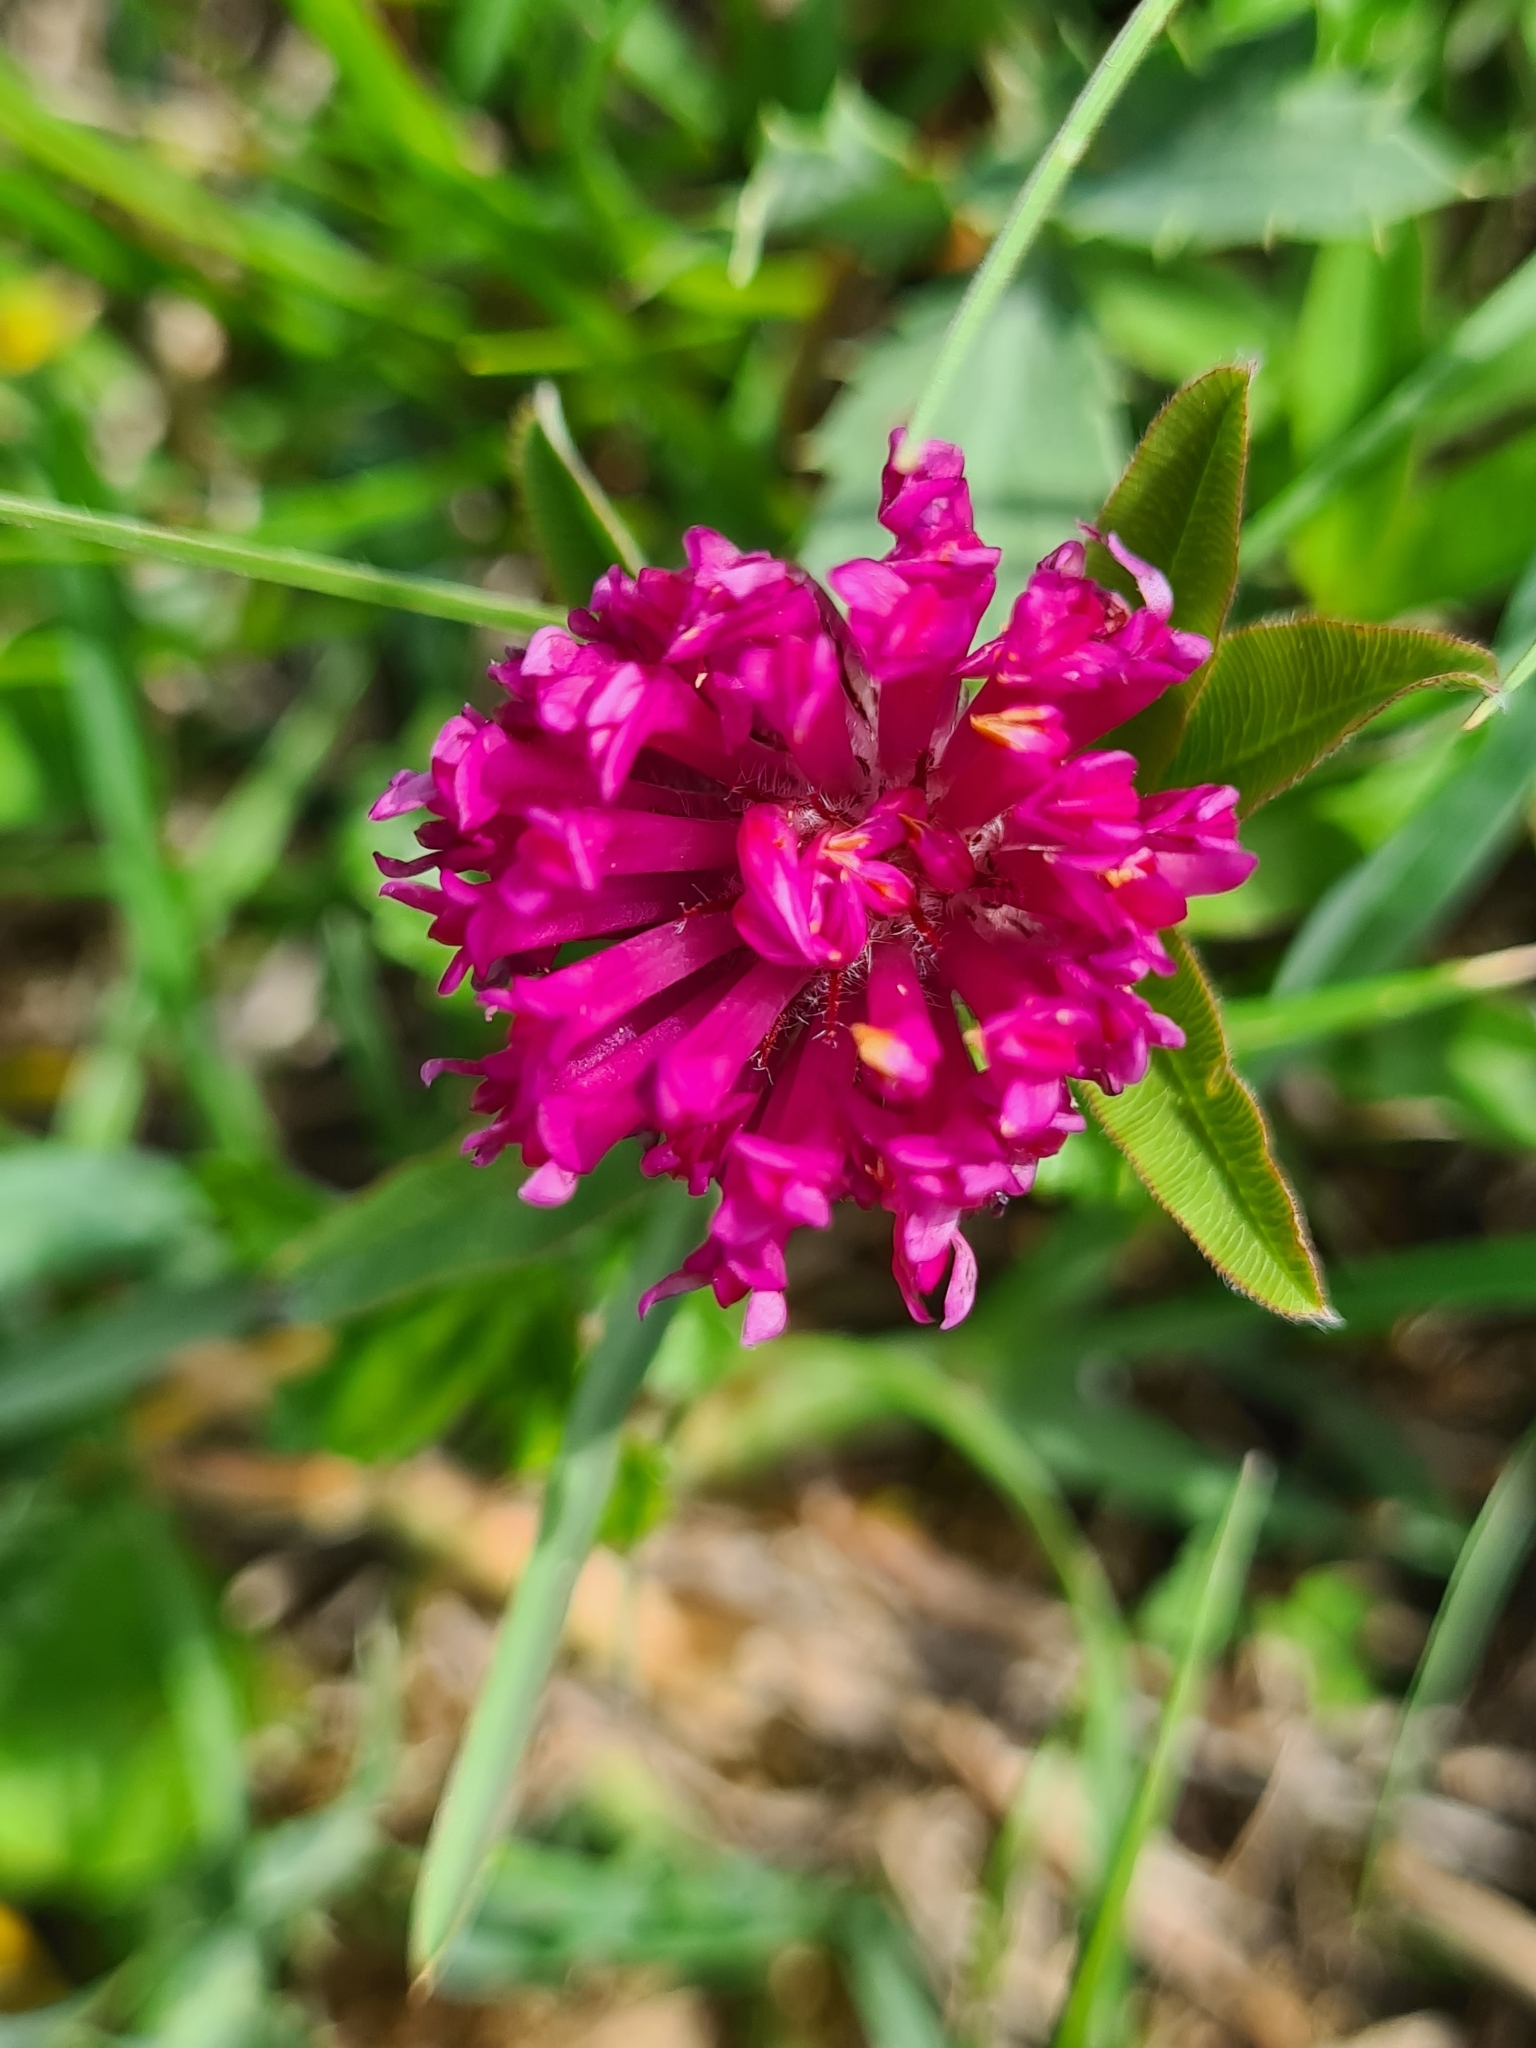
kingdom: Plantae
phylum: Tracheophyta
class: Magnoliopsida
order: Fabales
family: Fabaceae
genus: Trifolium
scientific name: Trifolium alpestre
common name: Owl-head clover
